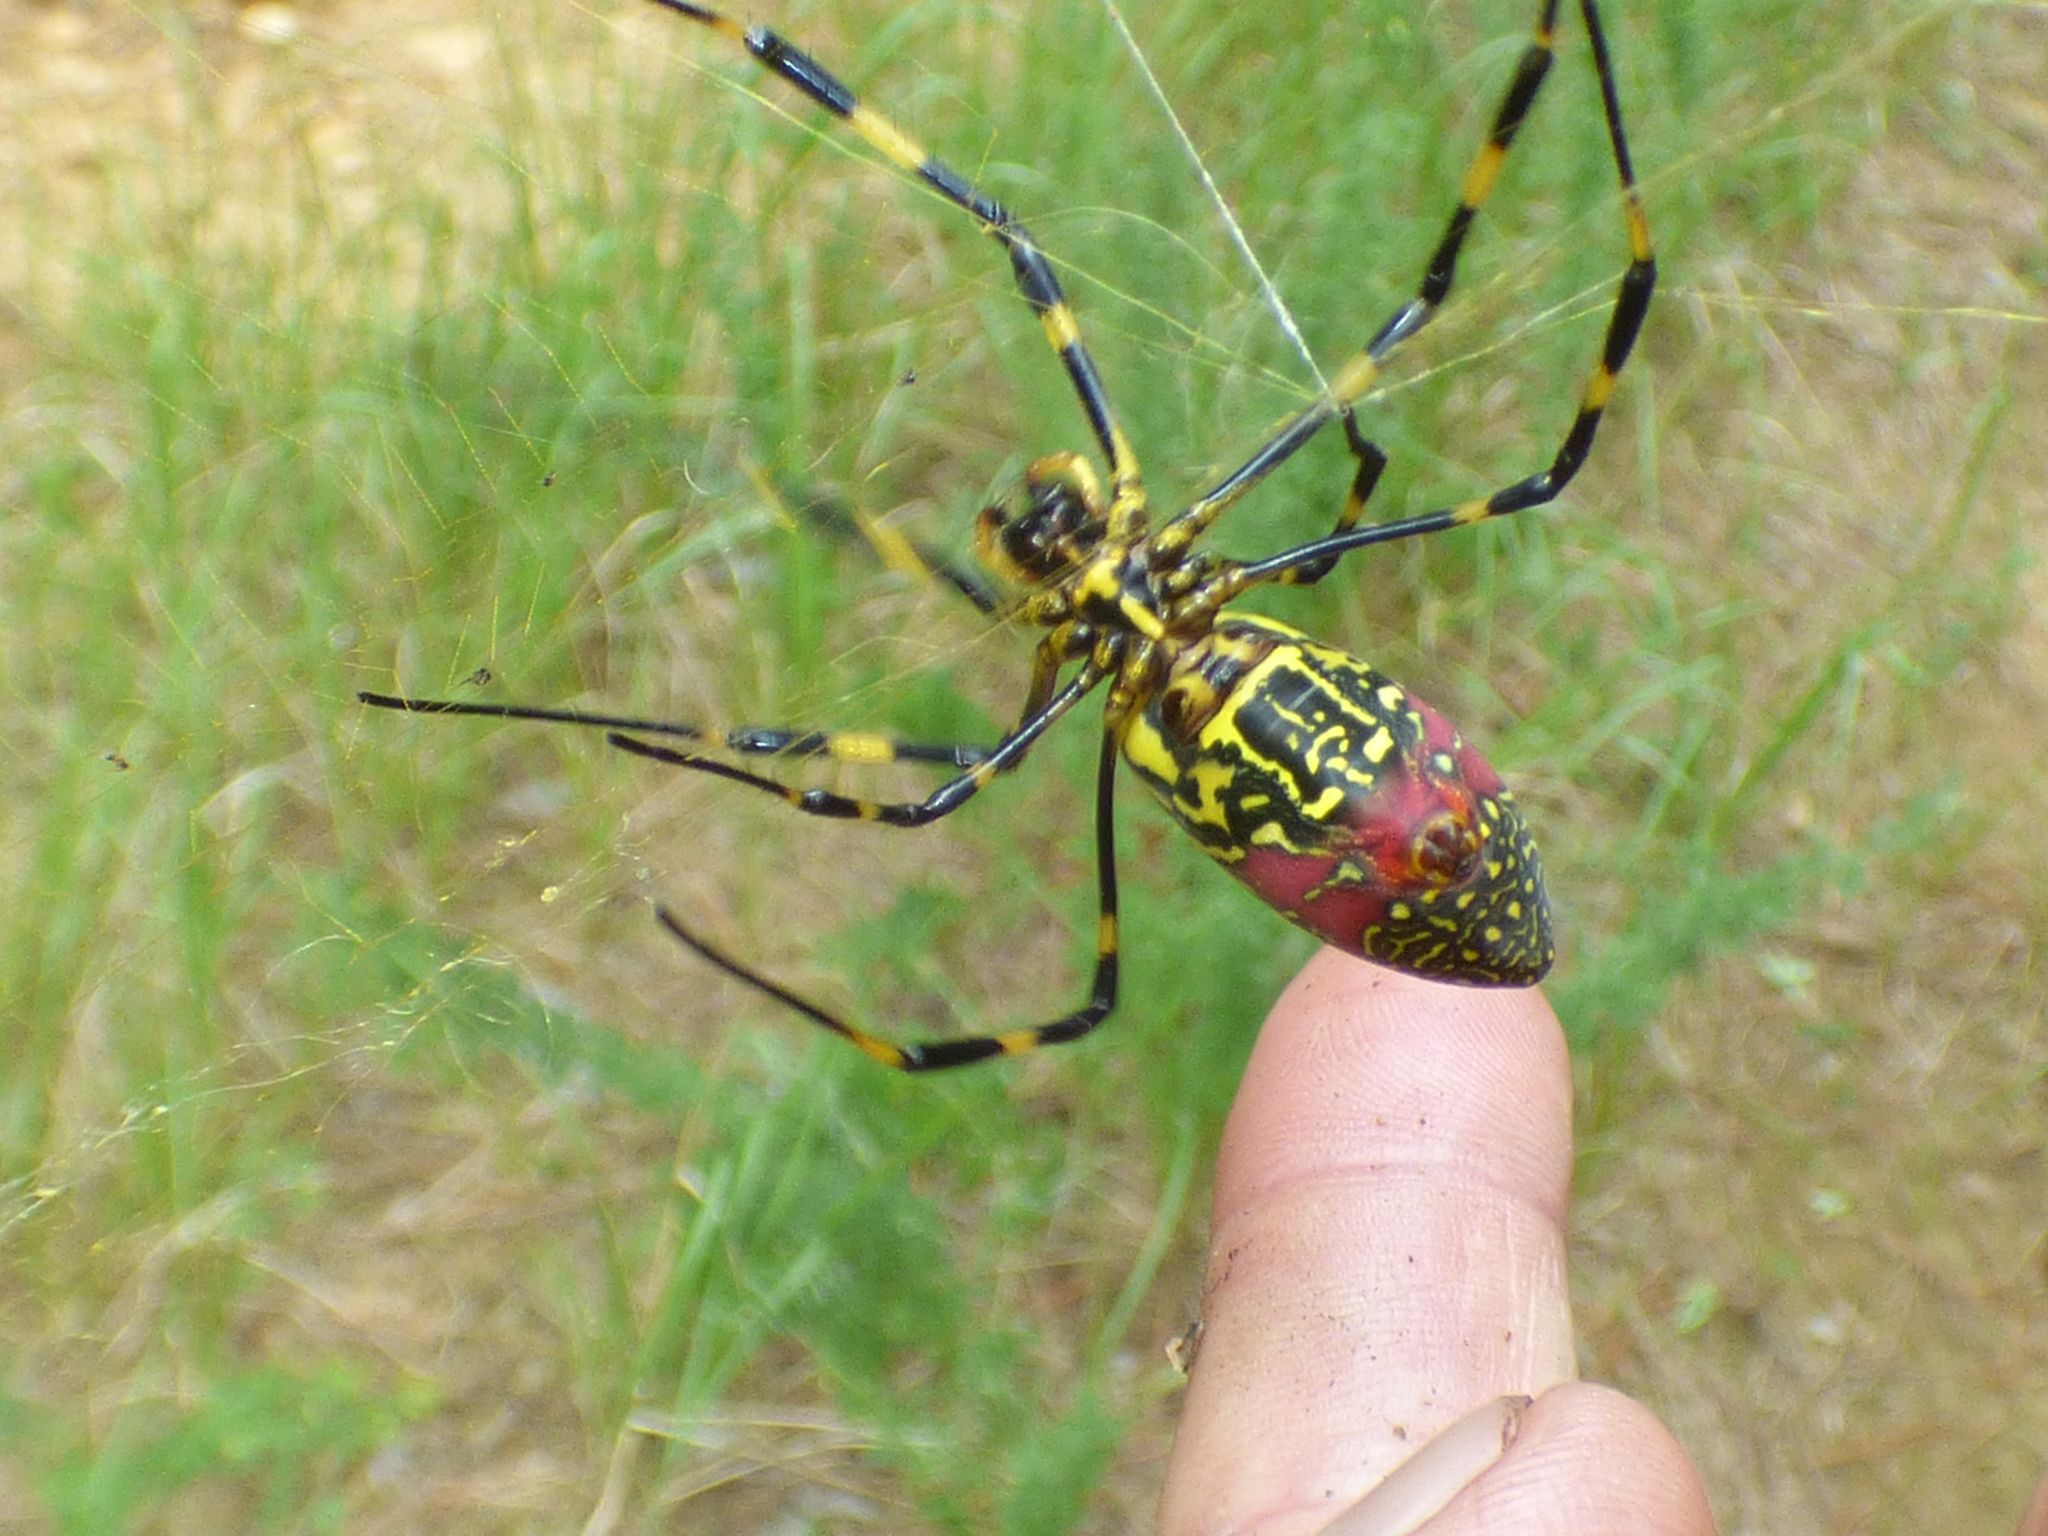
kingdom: Animalia
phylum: Arthropoda
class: Arachnida
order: Araneae
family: Araneidae
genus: Trichonephila
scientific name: Trichonephila clavata
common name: Jorō spider
